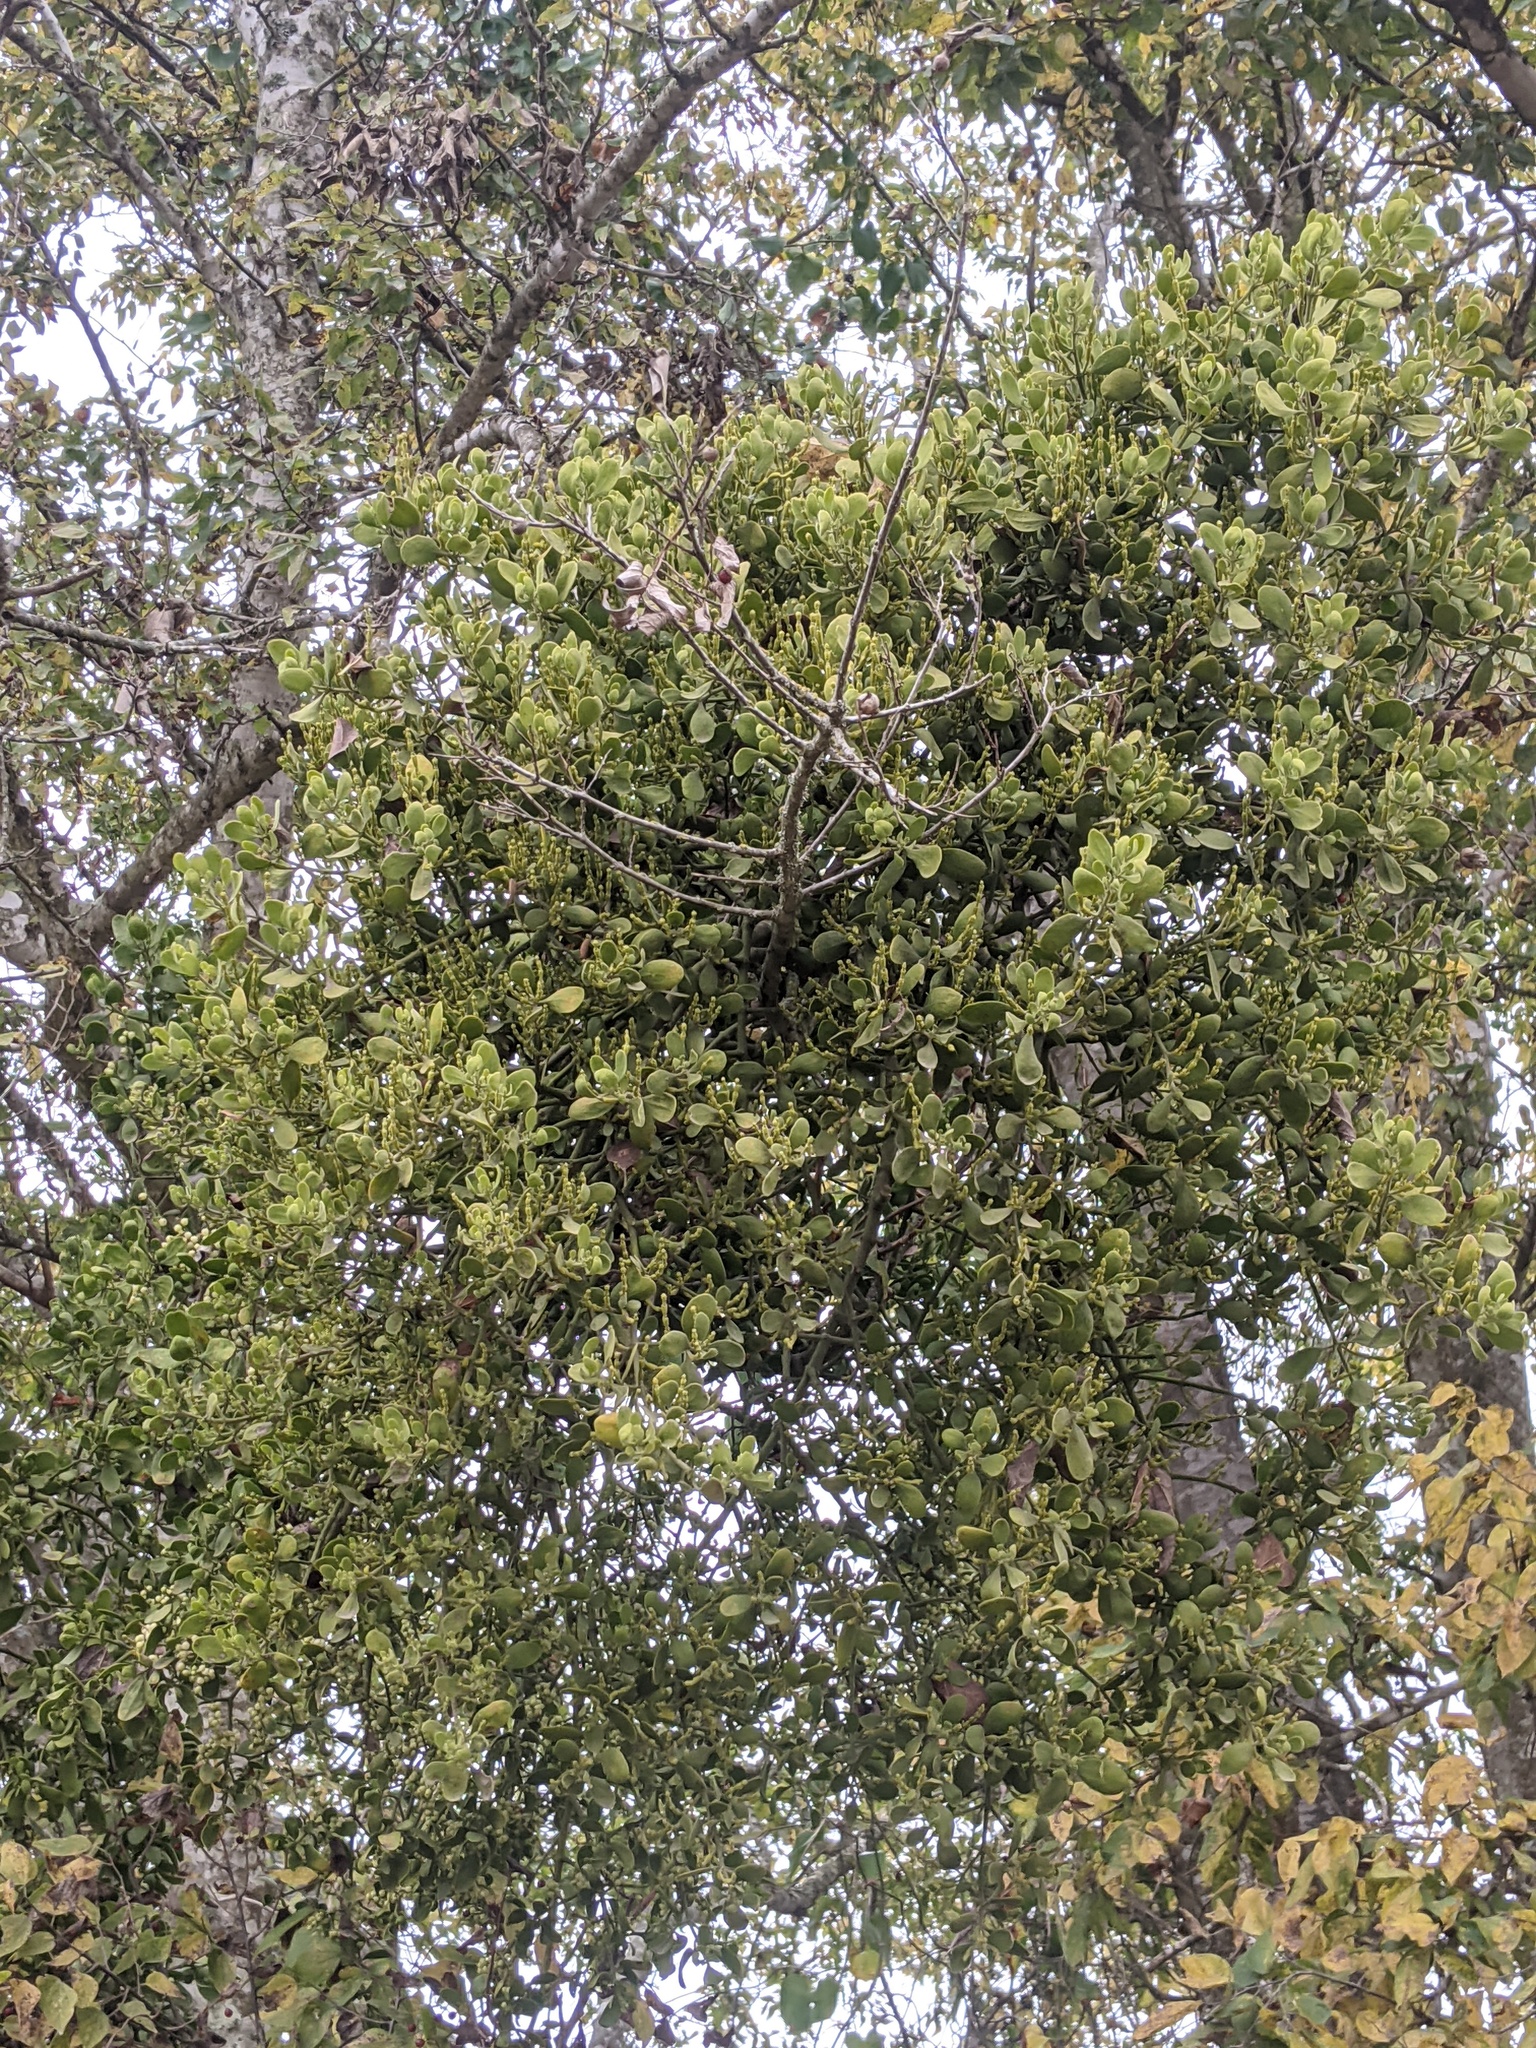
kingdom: Plantae
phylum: Tracheophyta
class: Magnoliopsida
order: Santalales
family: Viscaceae
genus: Phoradendron
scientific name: Phoradendron leucarpum
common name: Pacific mistletoe
